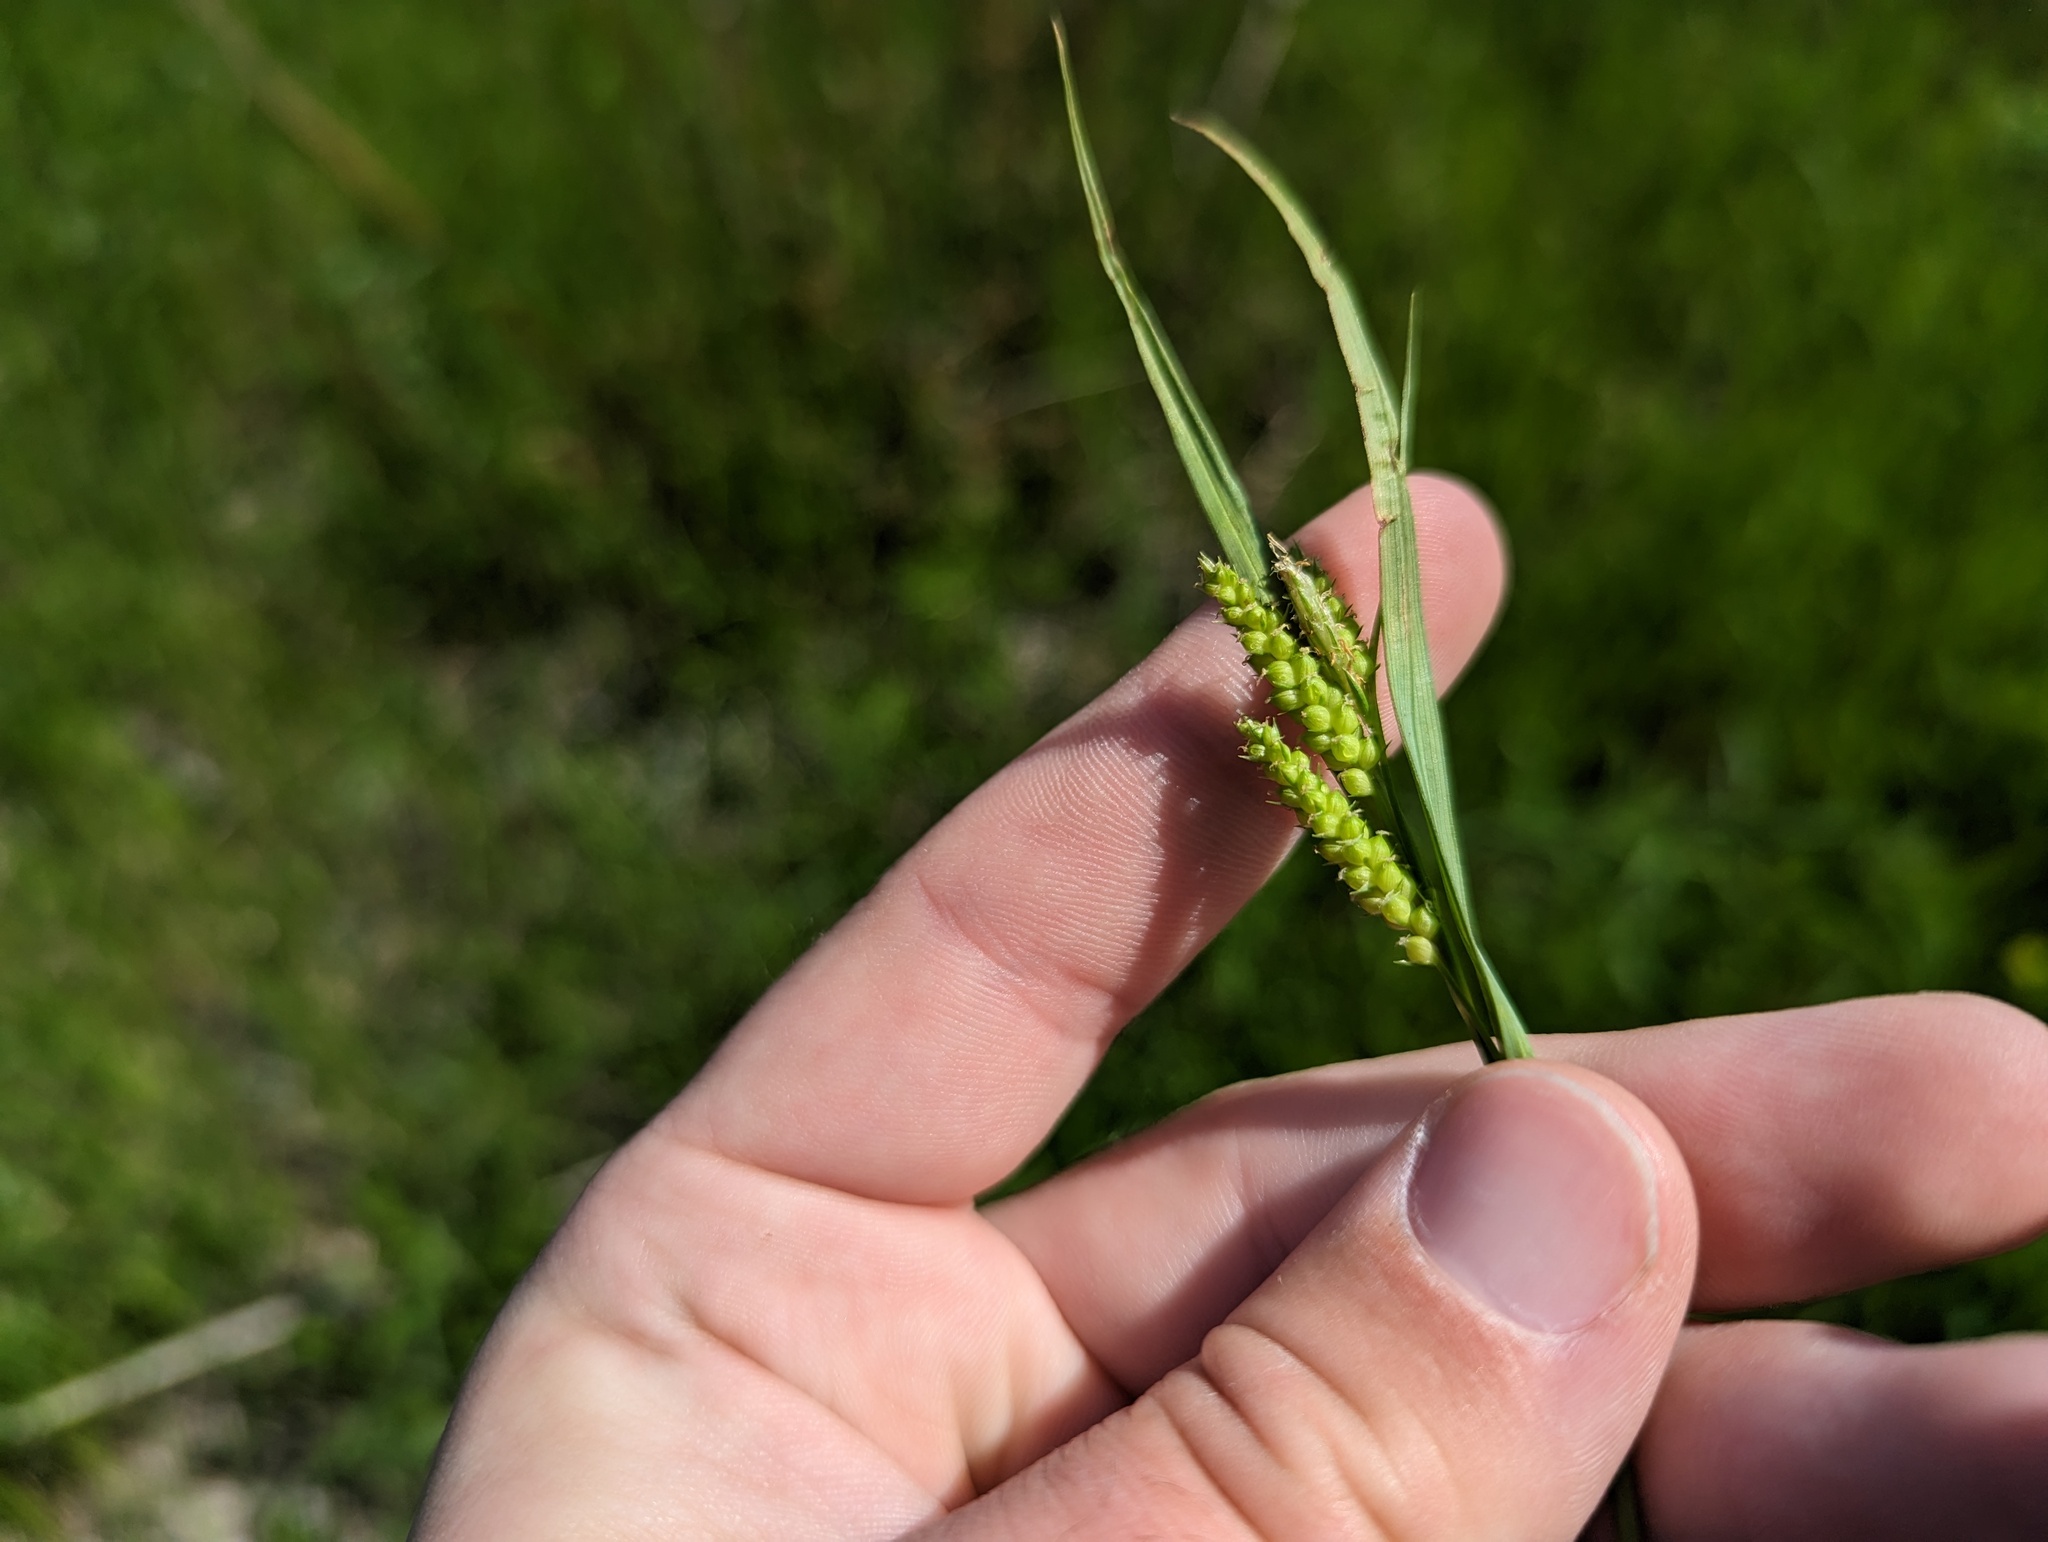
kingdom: Plantae
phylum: Tracheophyta
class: Liliopsida
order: Poales
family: Cyperaceae
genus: Carex
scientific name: Carex granularis
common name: Granular sedge
